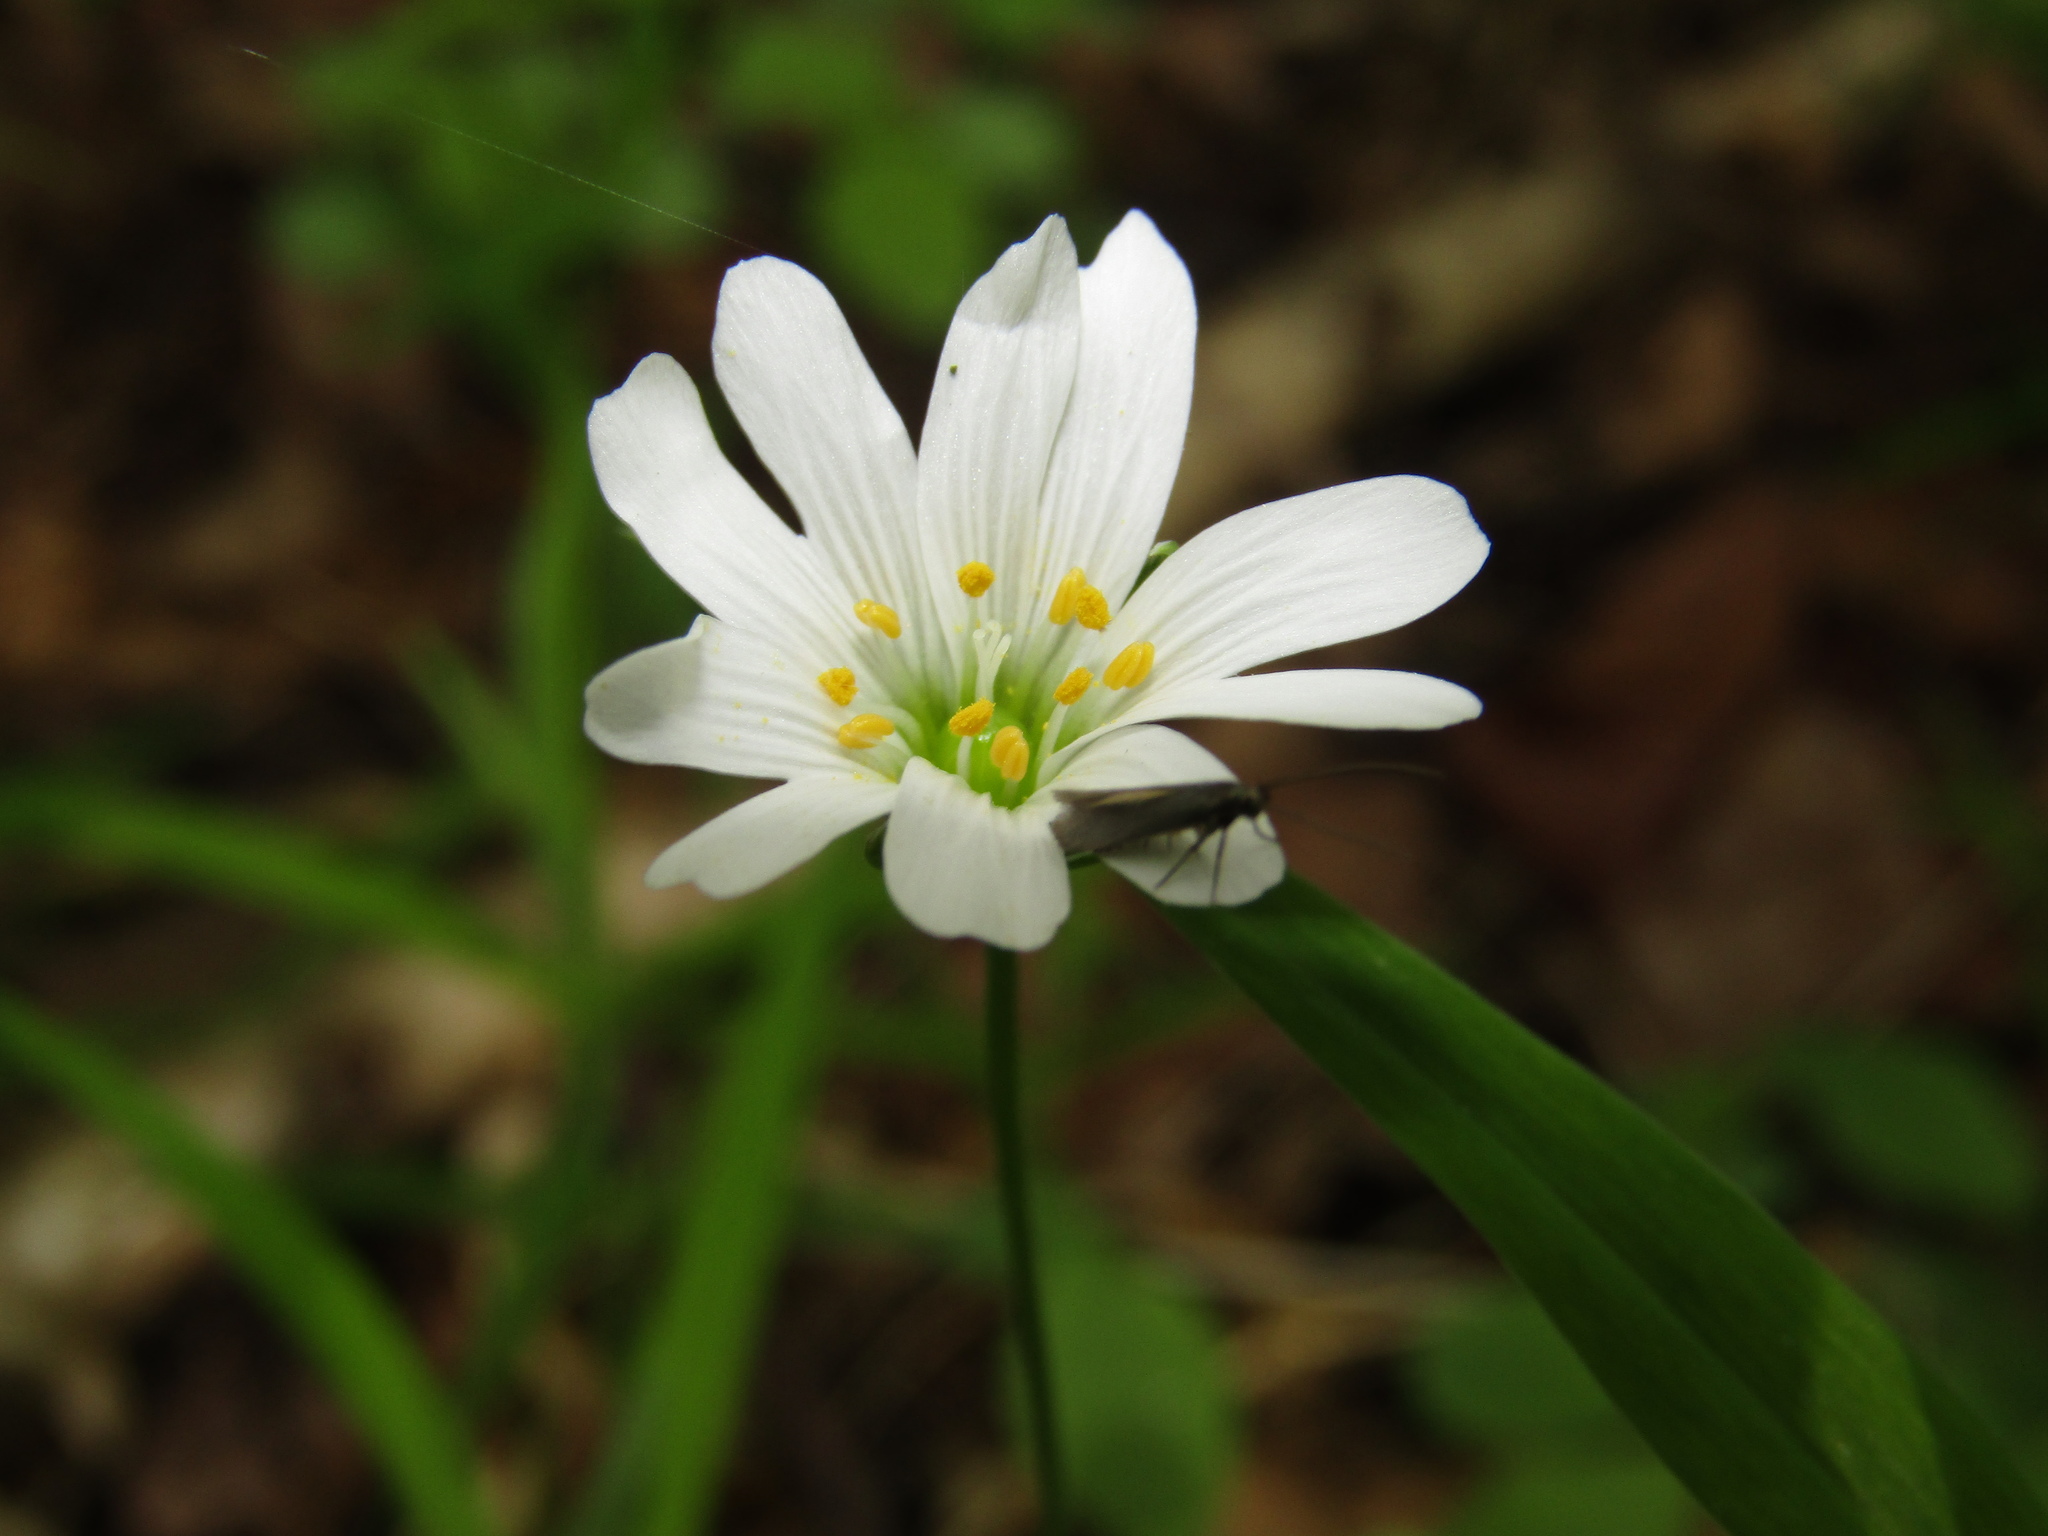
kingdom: Plantae
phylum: Tracheophyta
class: Magnoliopsida
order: Caryophyllales
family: Caryophyllaceae
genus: Rabelera
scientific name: Rabelera holostea
